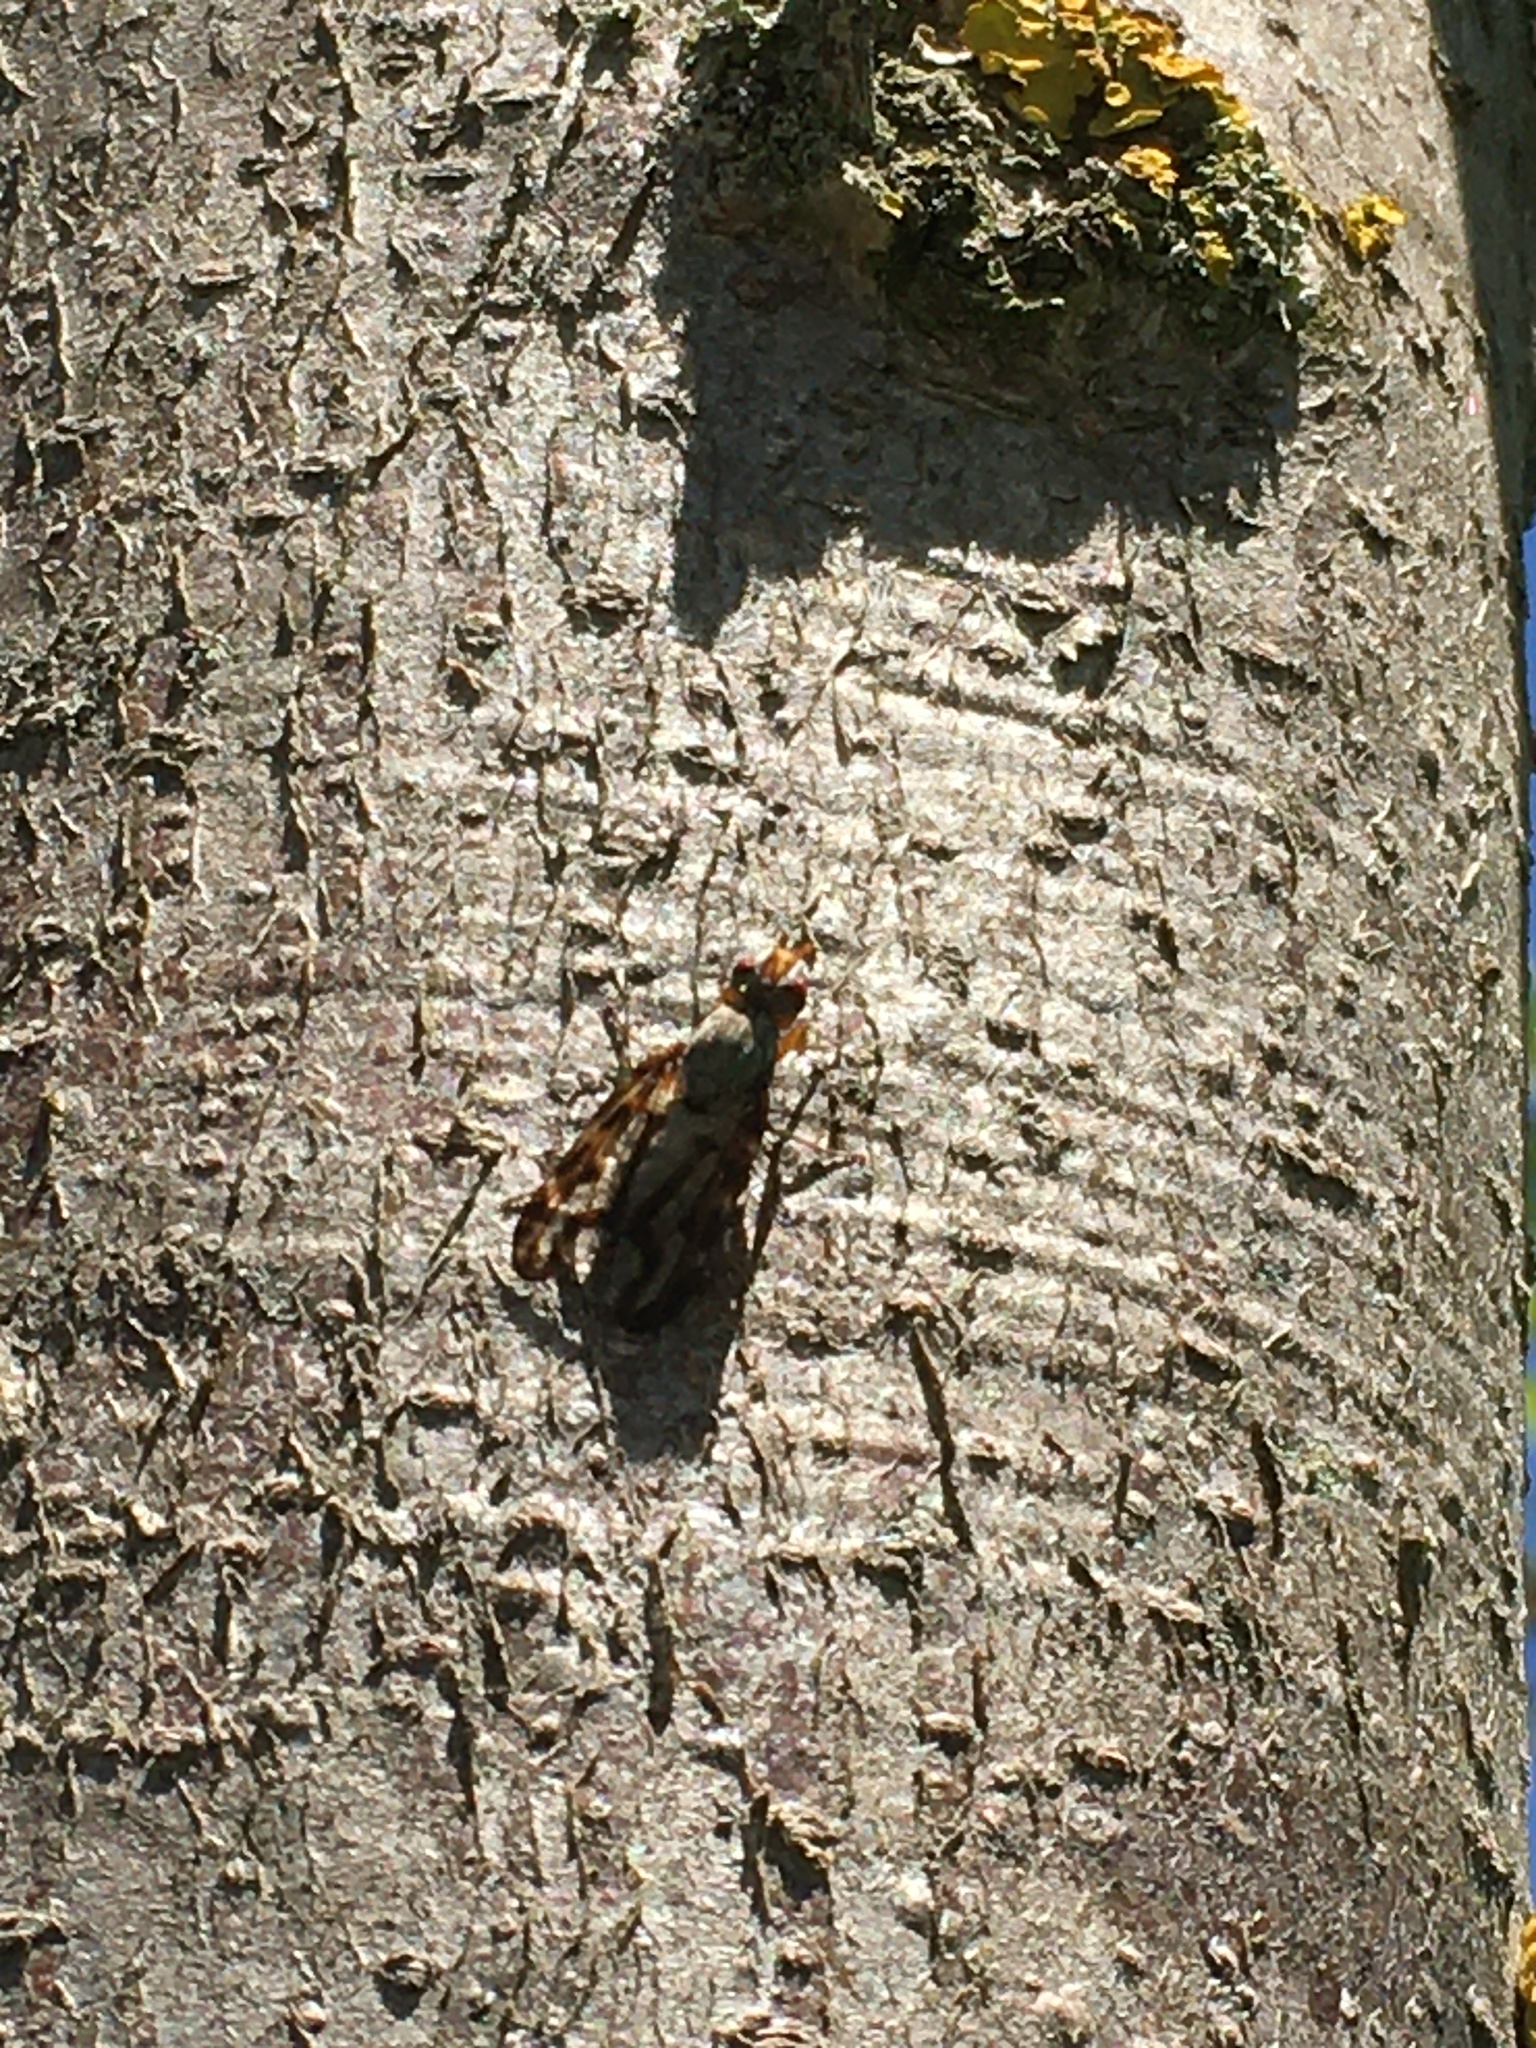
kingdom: Animalia
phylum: Arthropoda
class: Insecta
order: Diptera
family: Ulidiidae
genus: Otites
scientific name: Otites lamed
